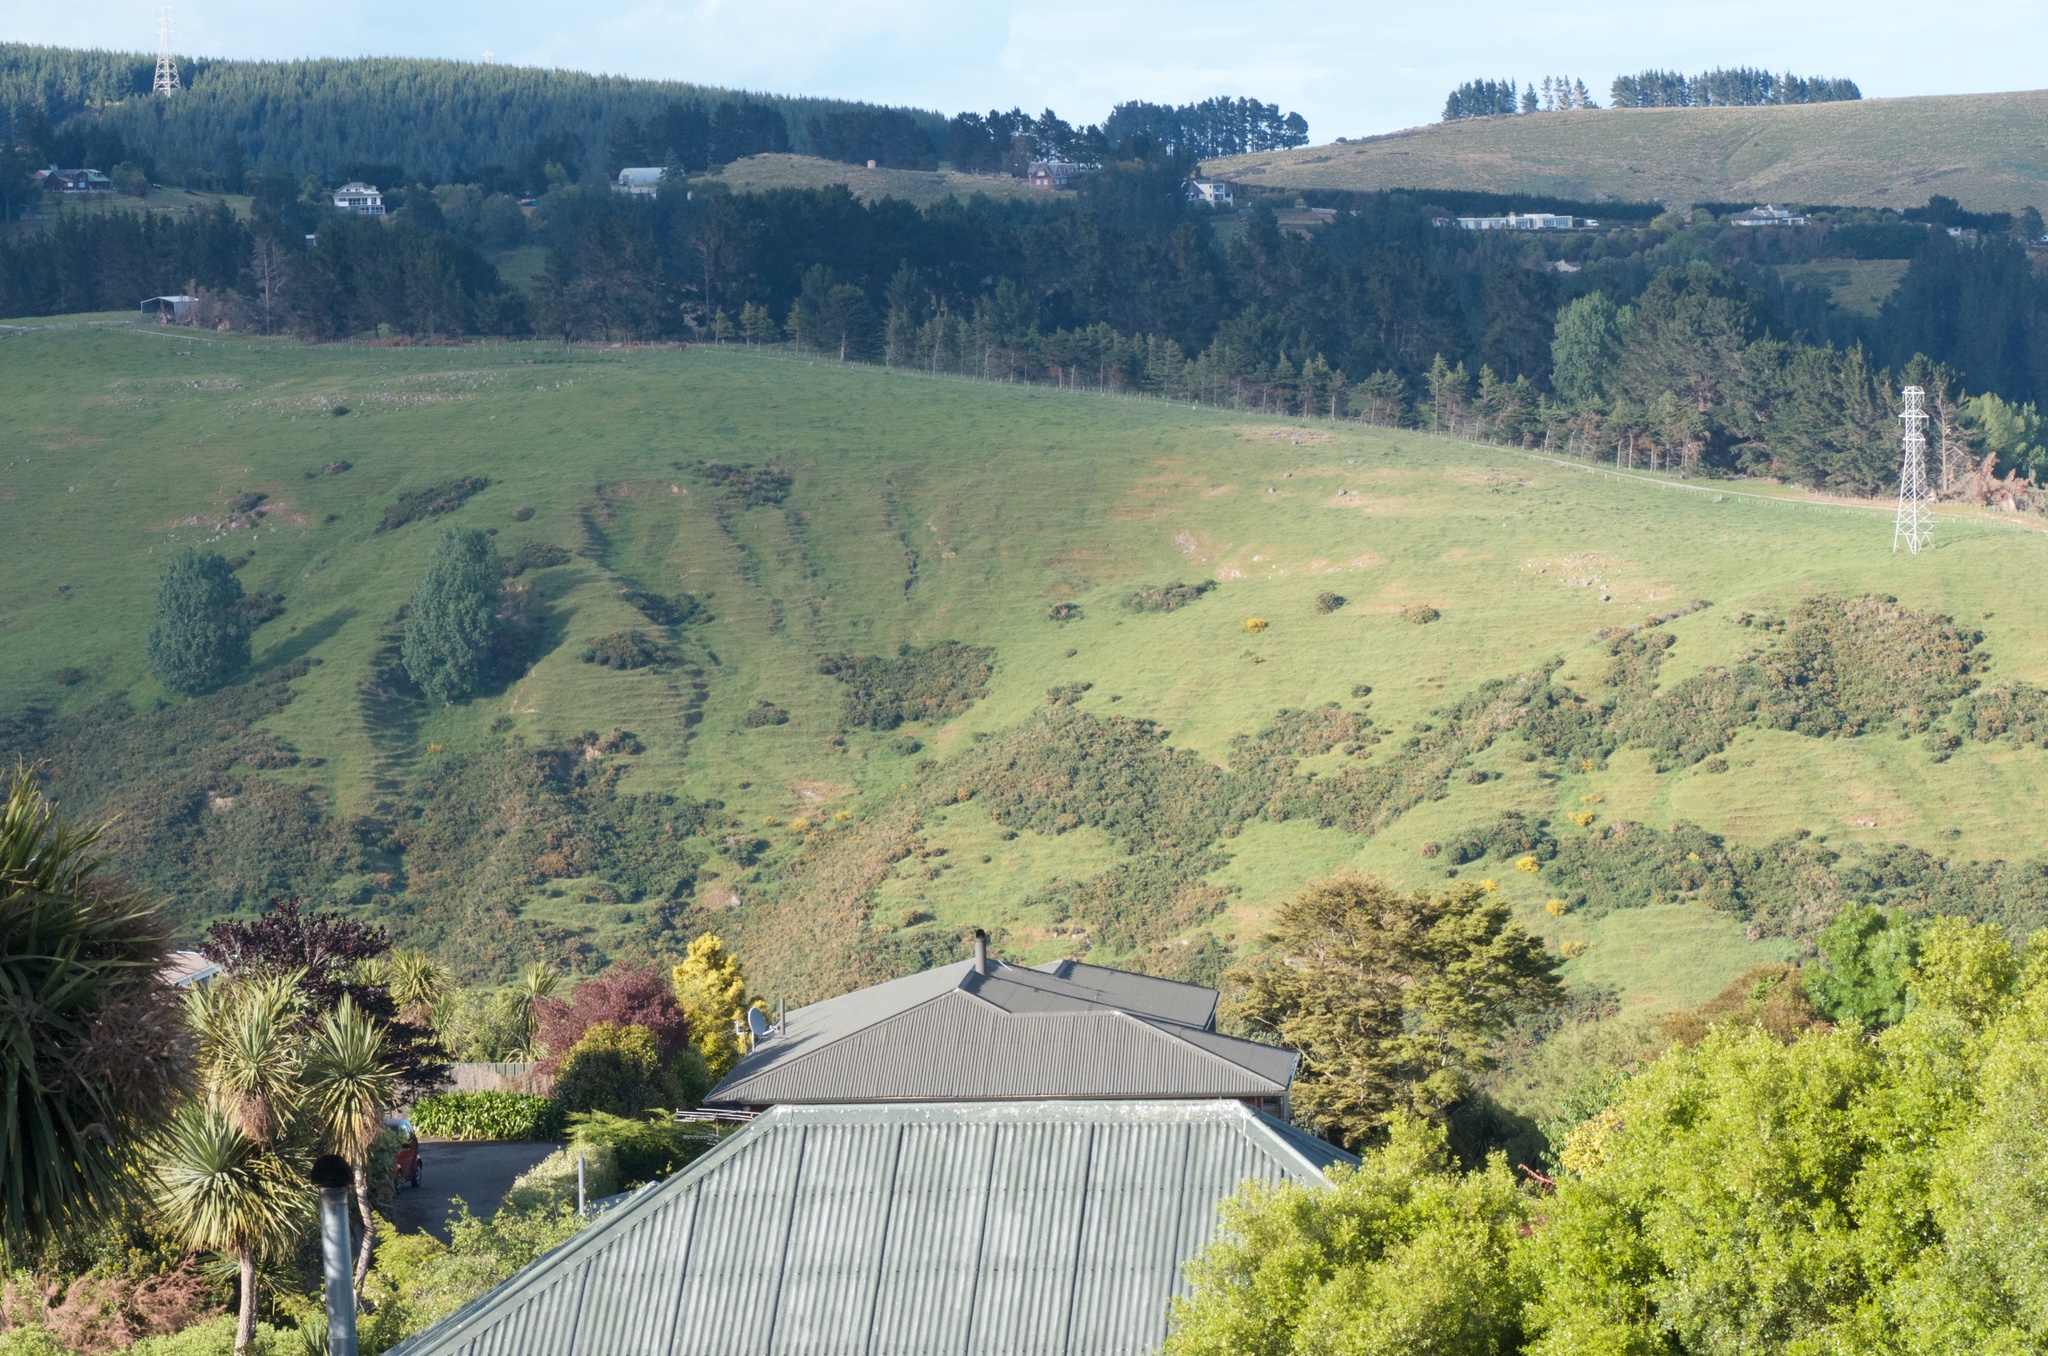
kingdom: Plantae
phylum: Tracheophyta
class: Magnoliopsida
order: Fabales
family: Fabaceae
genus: Ulex
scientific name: Ulex europaeus
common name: Common gorse
